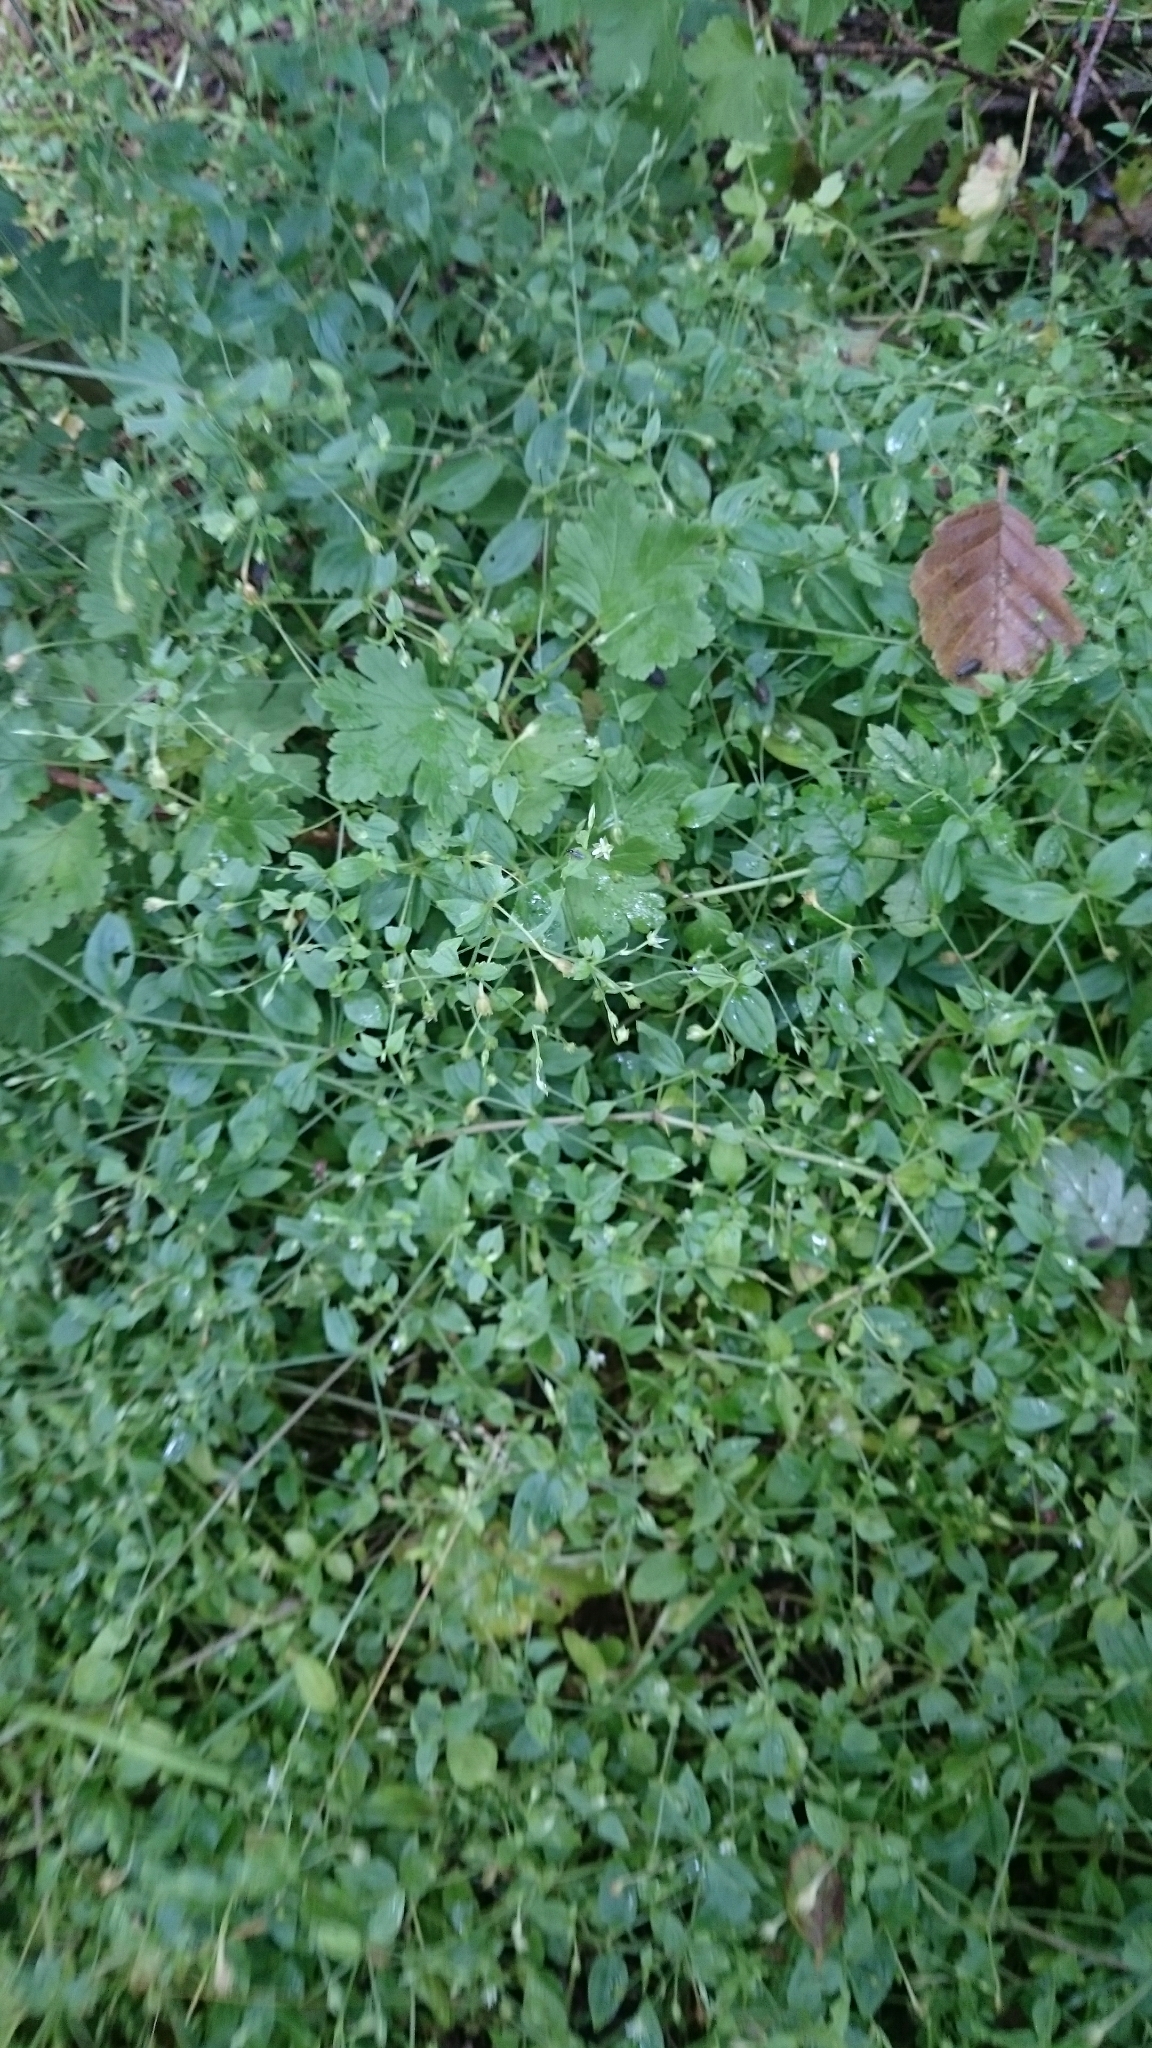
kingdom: Plantae
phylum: Tracheophyta
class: Magnoliopsida
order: Caryophyllales
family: Caryophyllaceae
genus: Moehringia
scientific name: Moehringia trinervia
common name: Three-nerved sandwort
